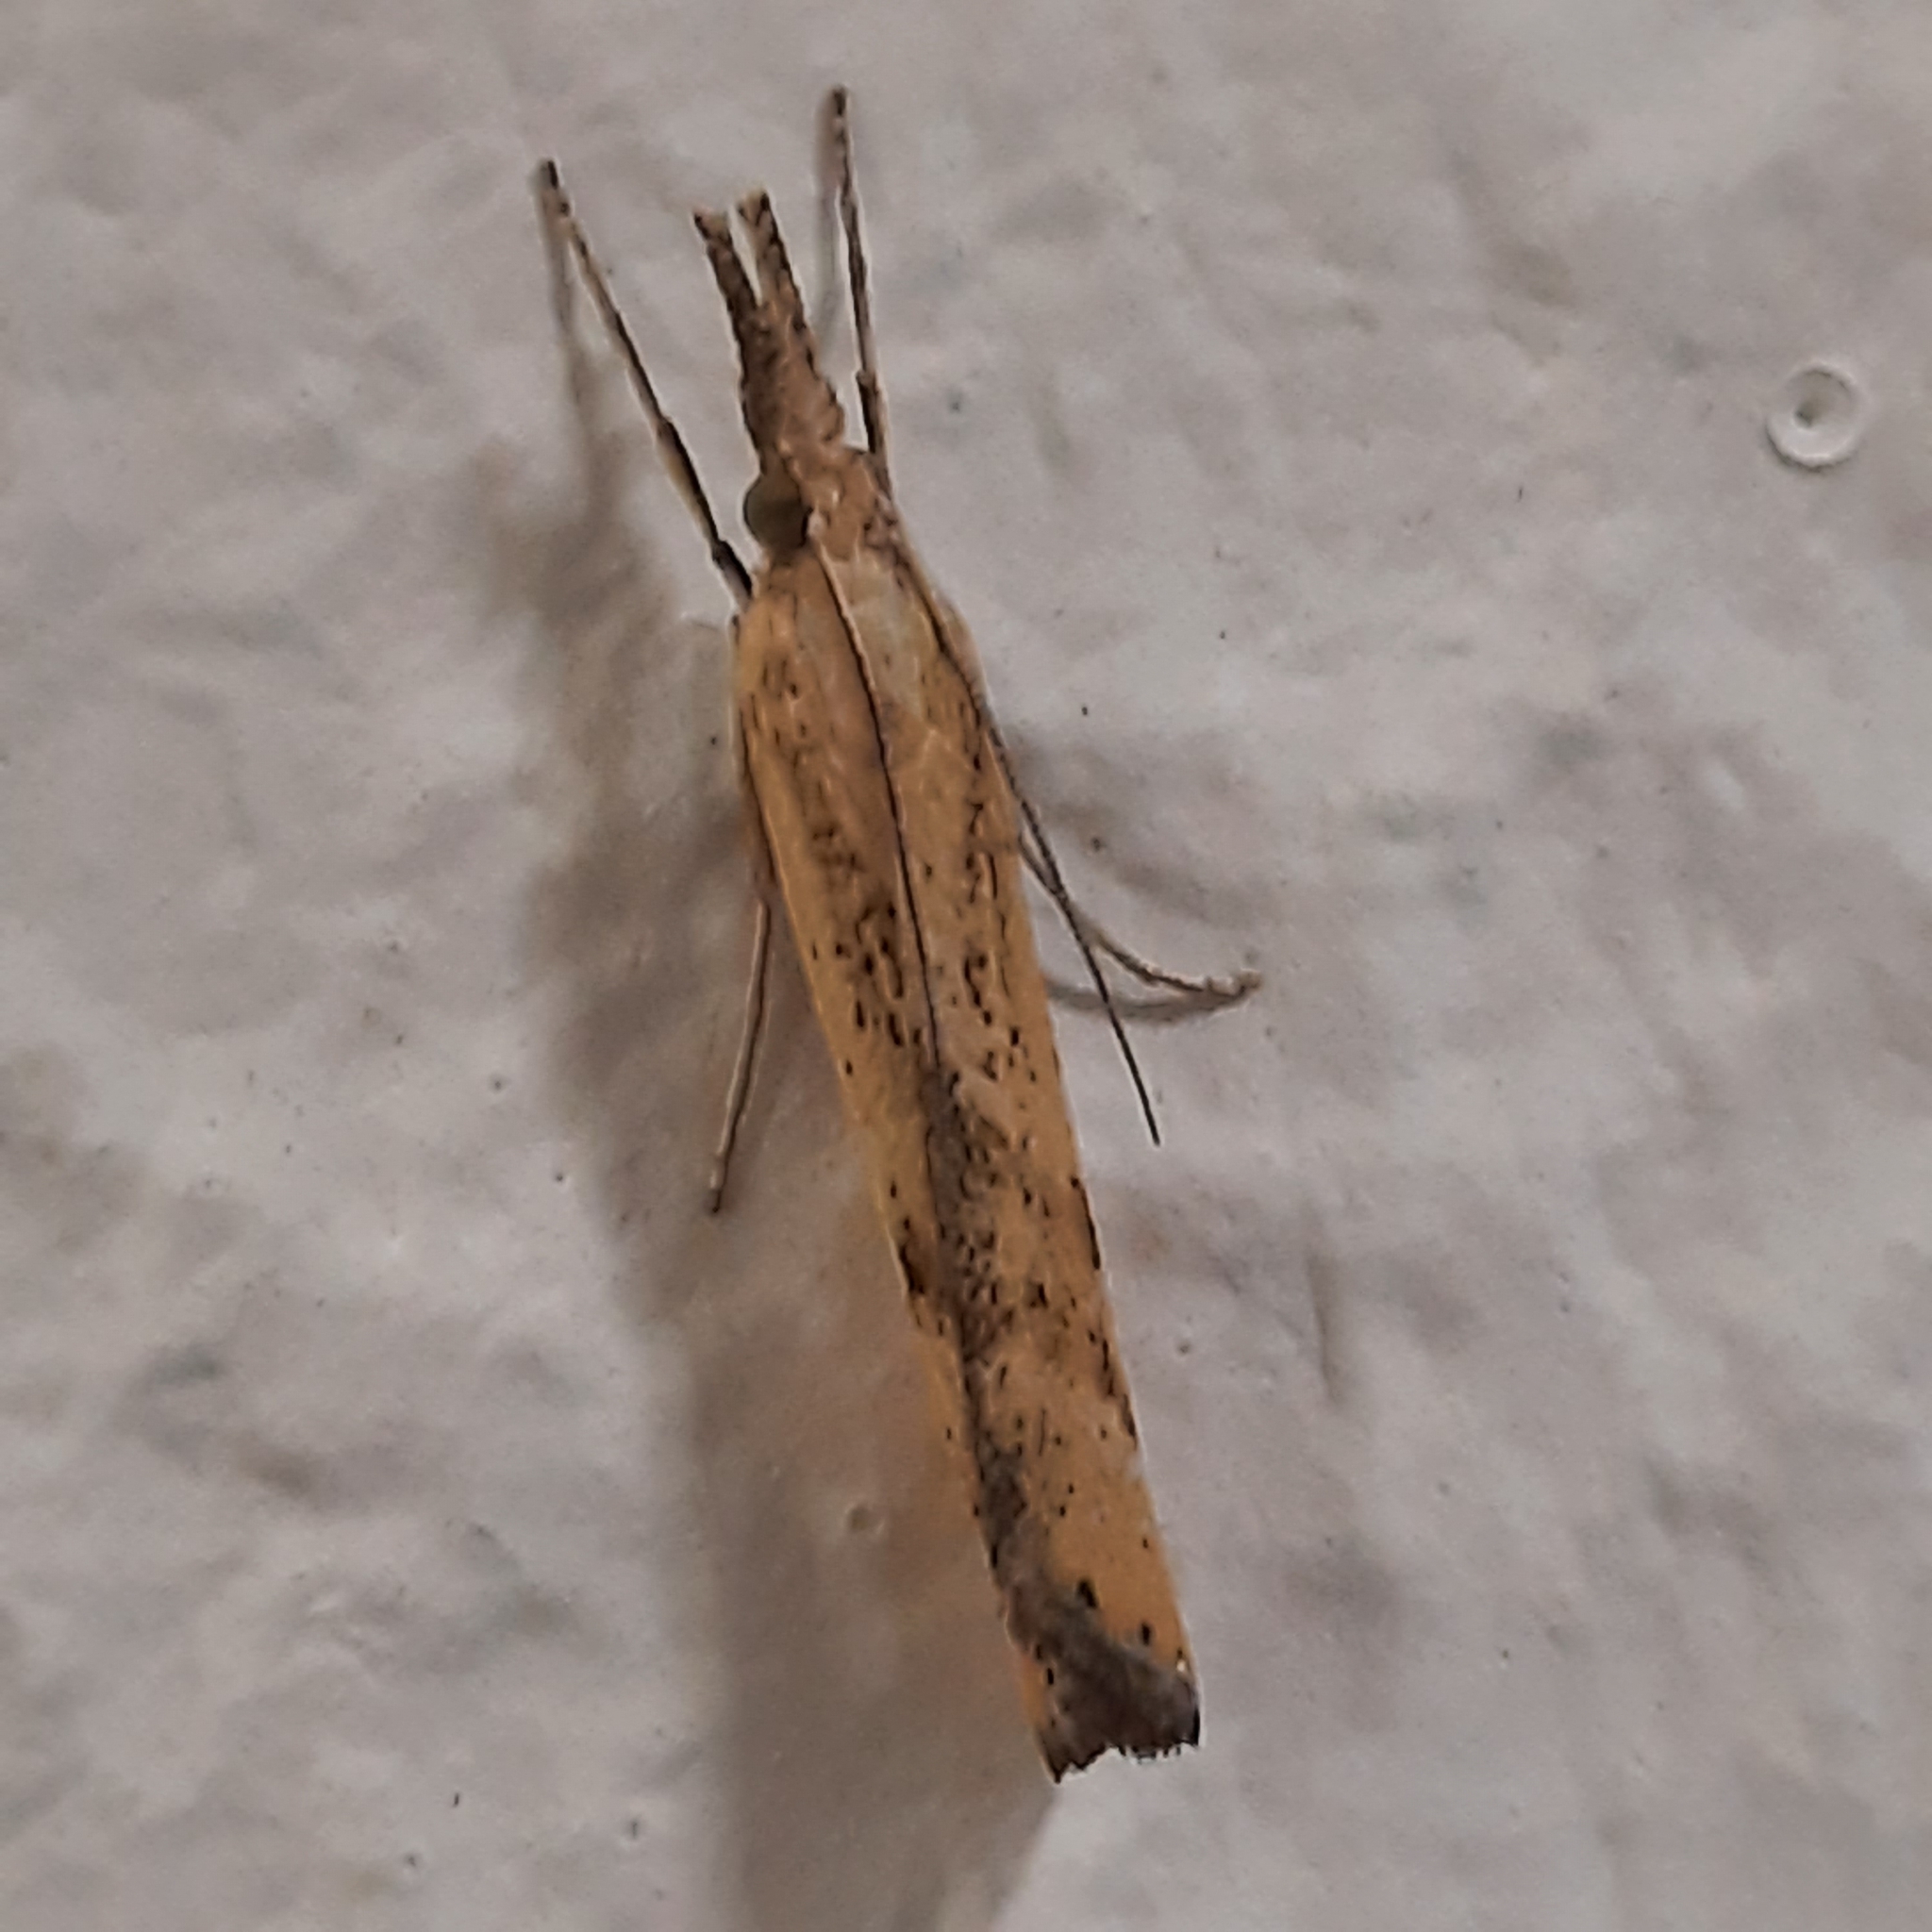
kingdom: Animalia
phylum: Arthropoda
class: Insecta
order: Lepidoptera
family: Crambidae
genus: Agriphila
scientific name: Agriphila inquinatella
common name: Barred grass-veneer
